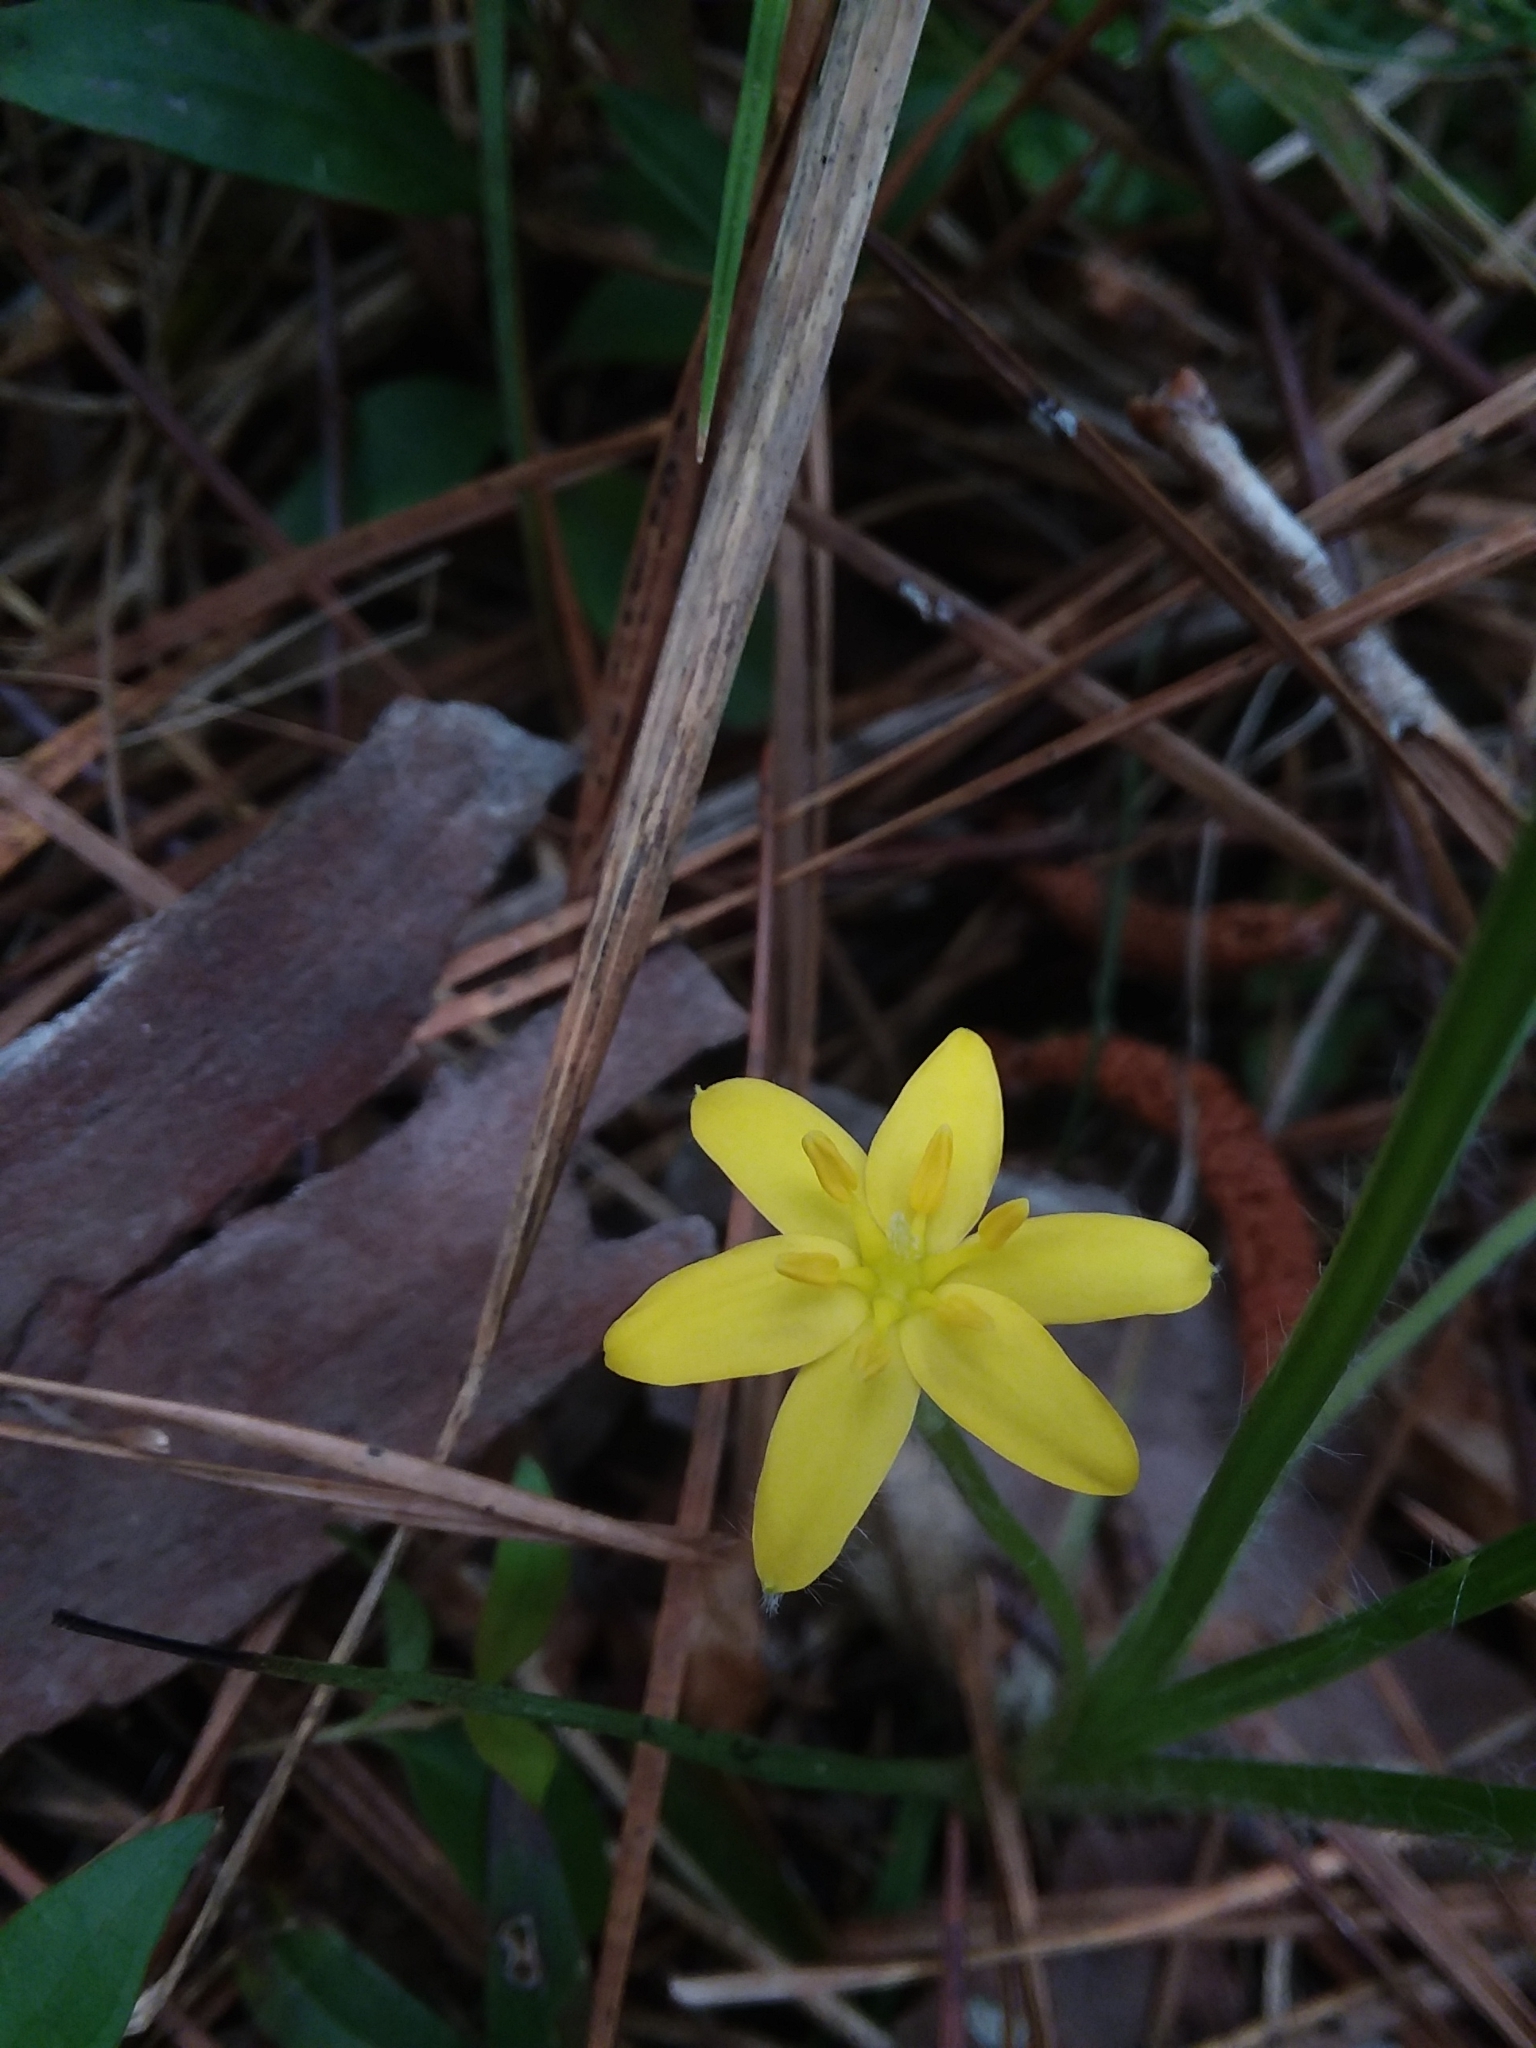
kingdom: Plantae
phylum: Tracheophyta
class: Liliopsida
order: Asparagales
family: Hypoxidaceae
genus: Hypoxis
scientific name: Hypoxis hirsuta
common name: Common goldstar
